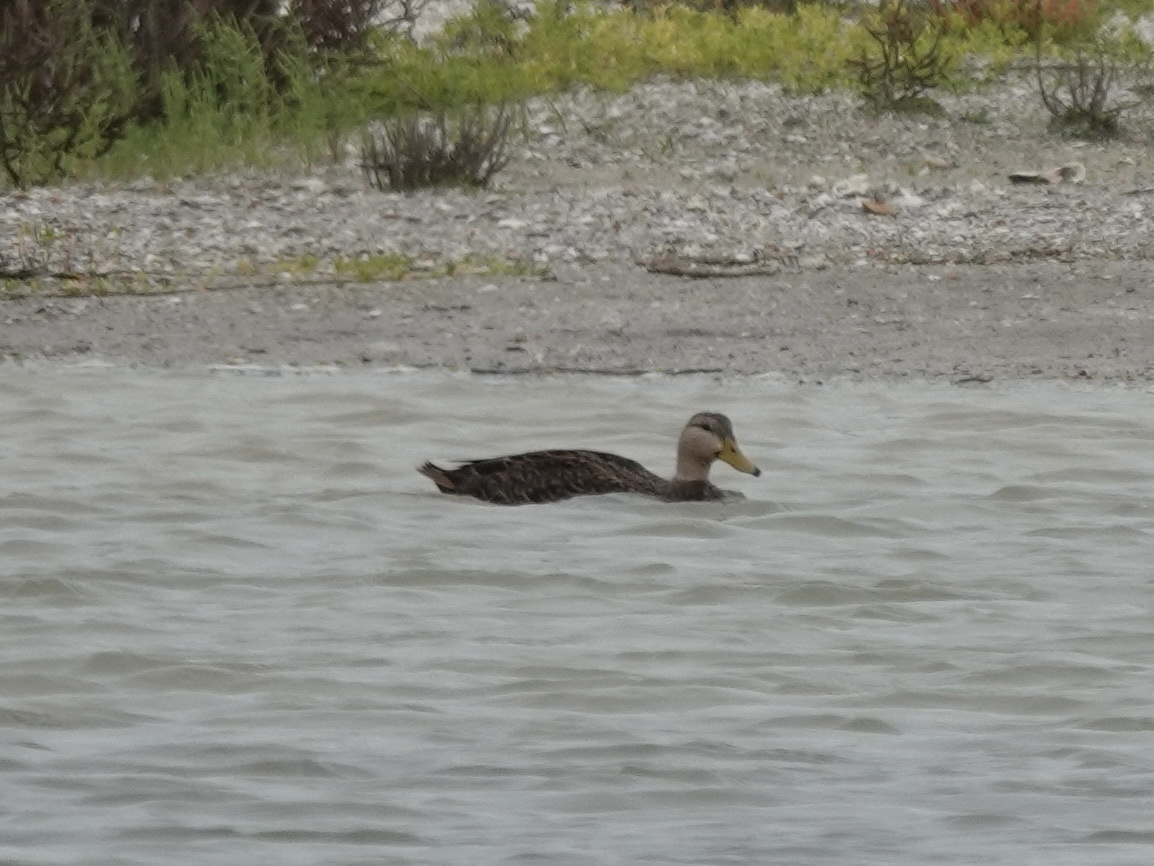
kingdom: Animalia
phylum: Chordata
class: Aves
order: Anseriformes
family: Anatidae
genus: Anas
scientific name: Anas fulvigula
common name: Mottled duck
